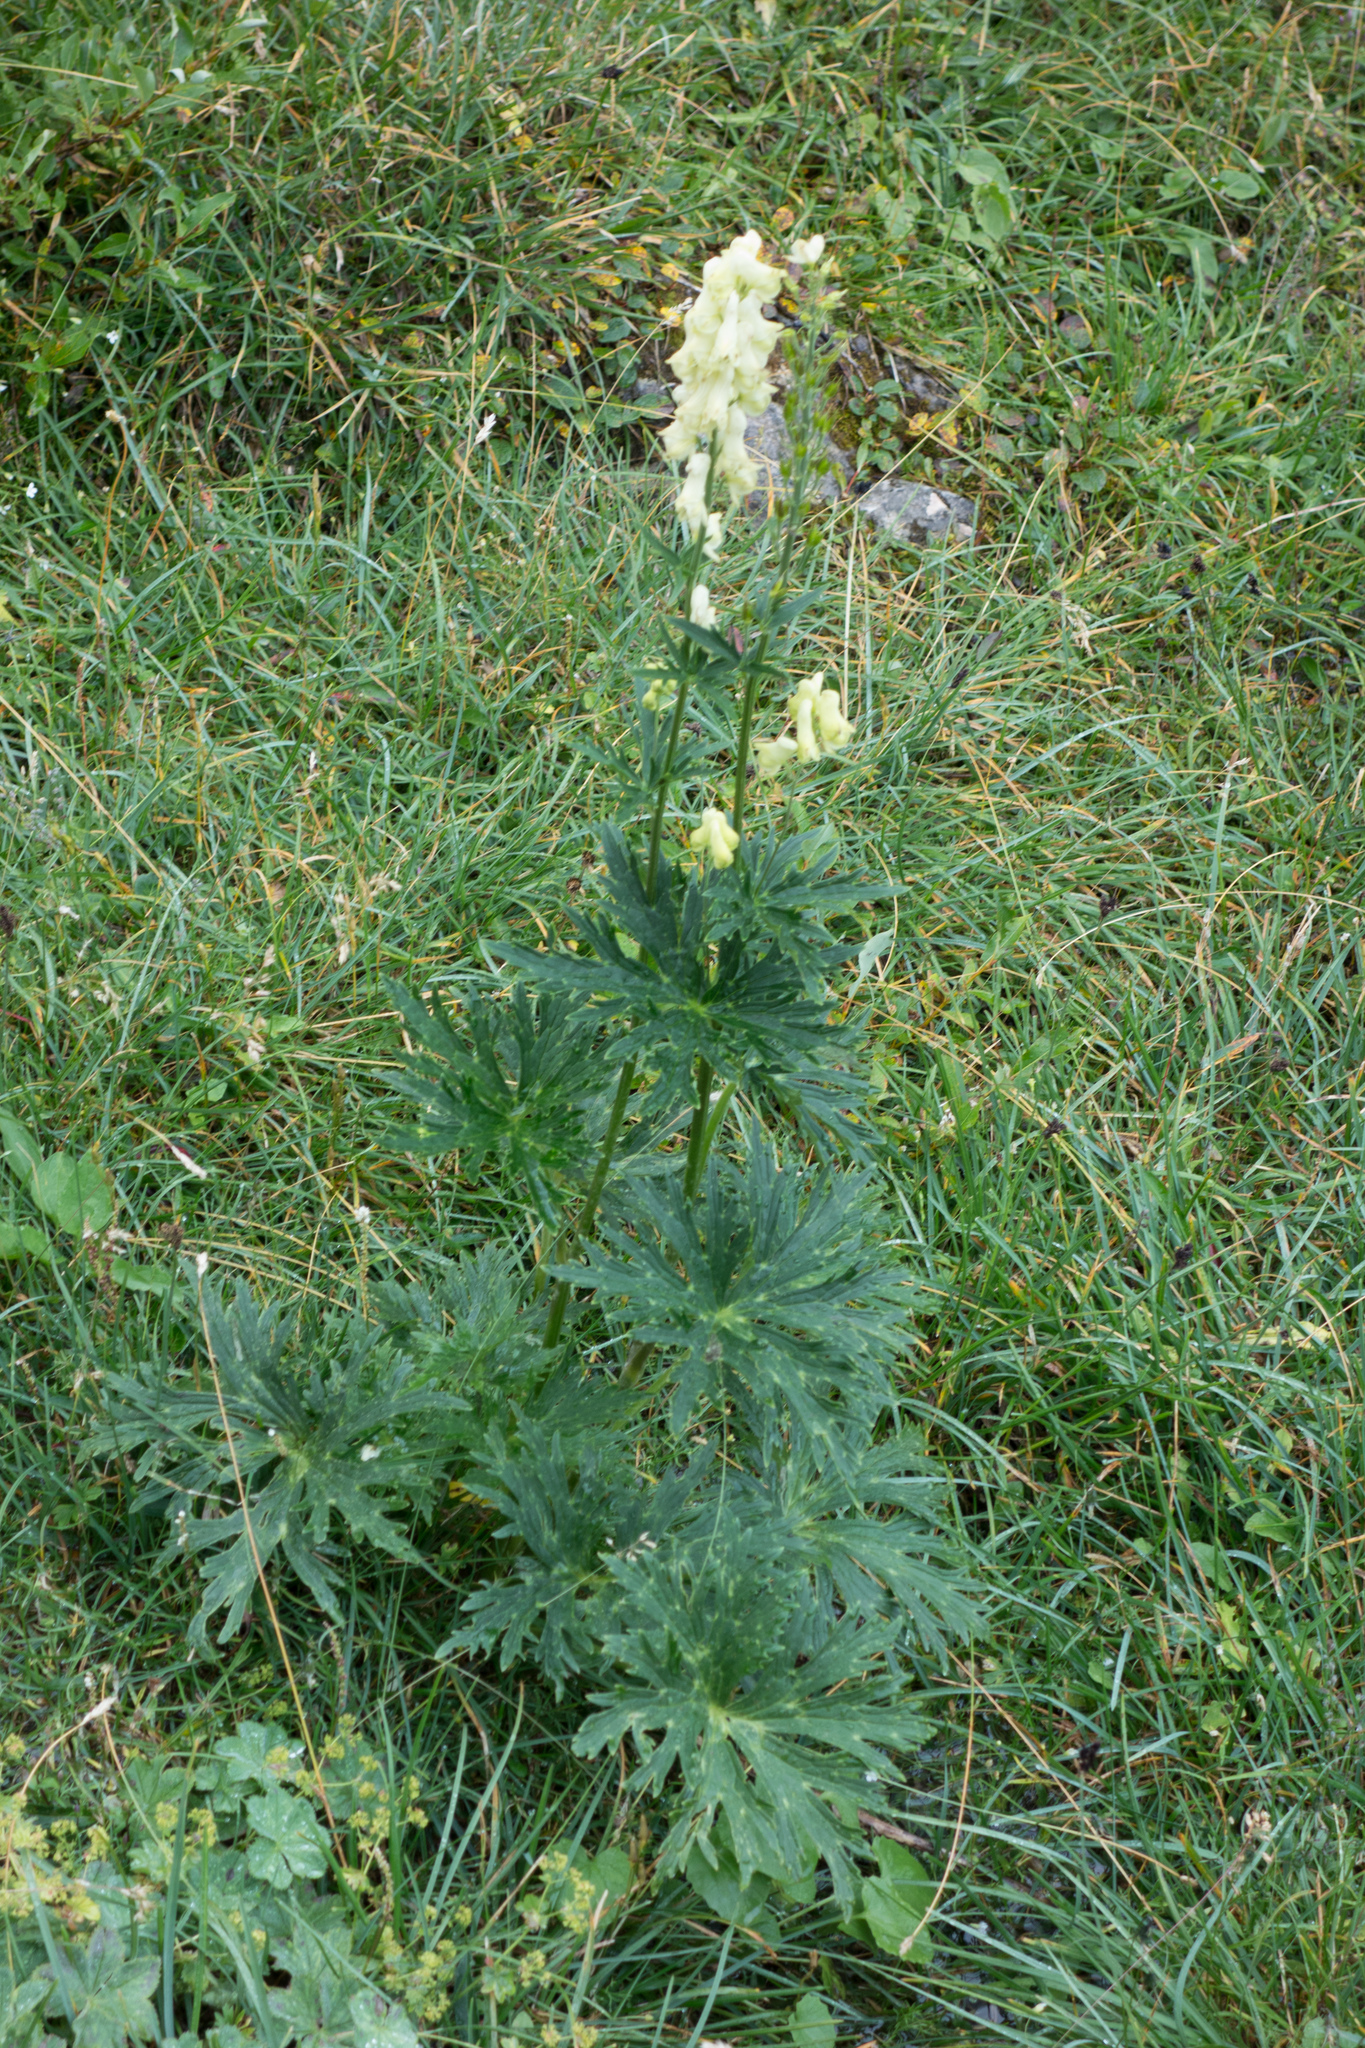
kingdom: Plantae
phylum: Tracheophyta
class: Magnoliopsida
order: Ranunculales
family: Ranunculaceae
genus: Aconitum
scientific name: Aconitum lycoctonum
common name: Wolf's-bane
